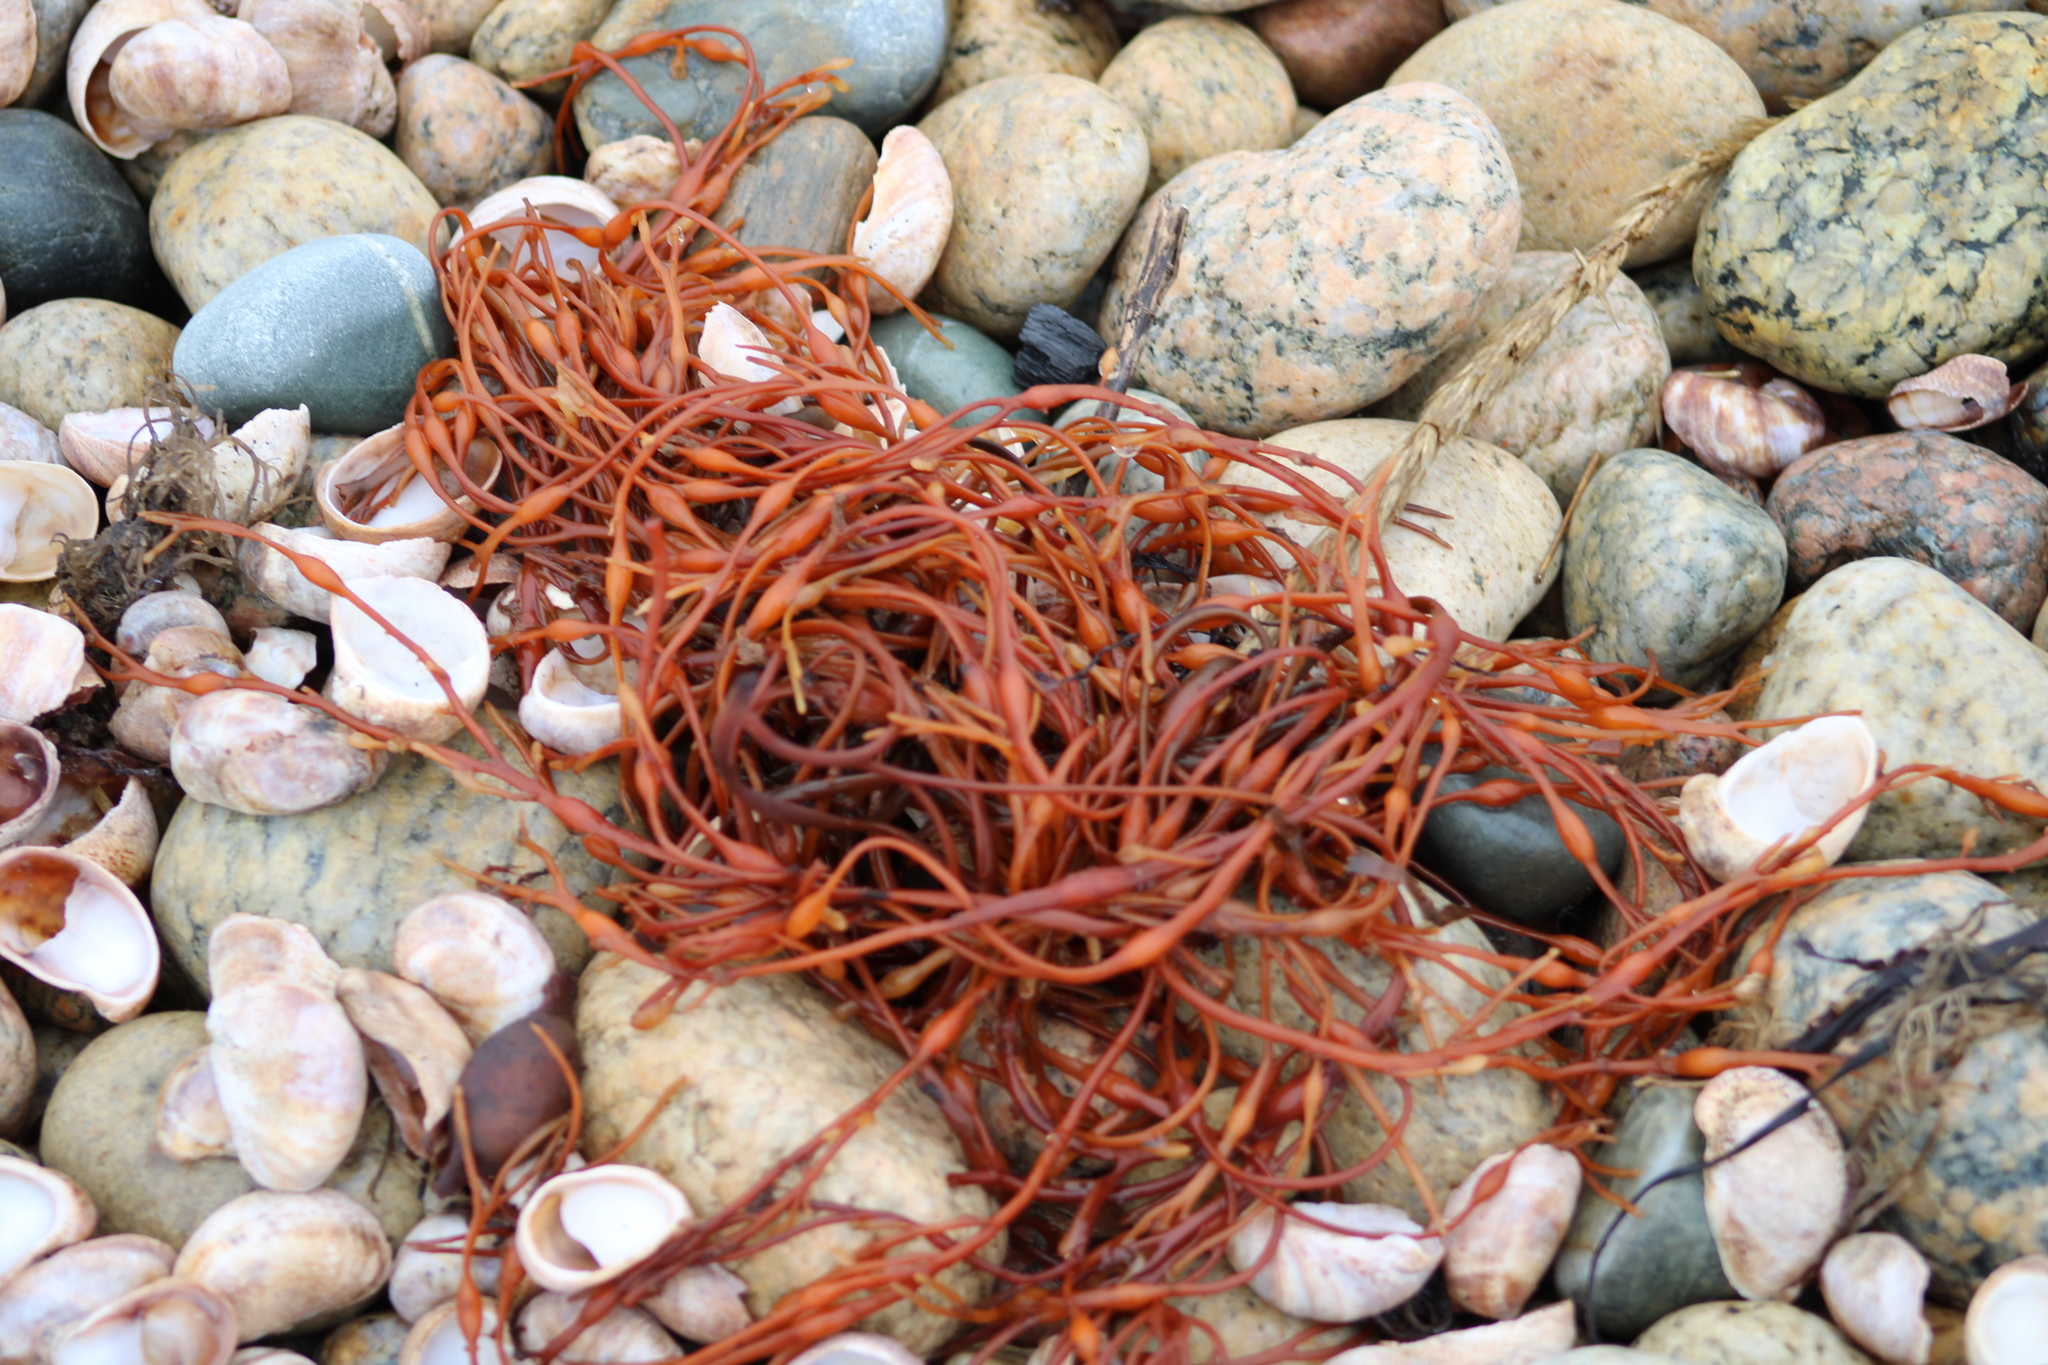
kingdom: Chromista
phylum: Ochrophyta
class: Phaeophyceae
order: Fucales
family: Fucaceae
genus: Ascophyllum
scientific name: Ascophyllum nodosum
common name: Knotted wrack
